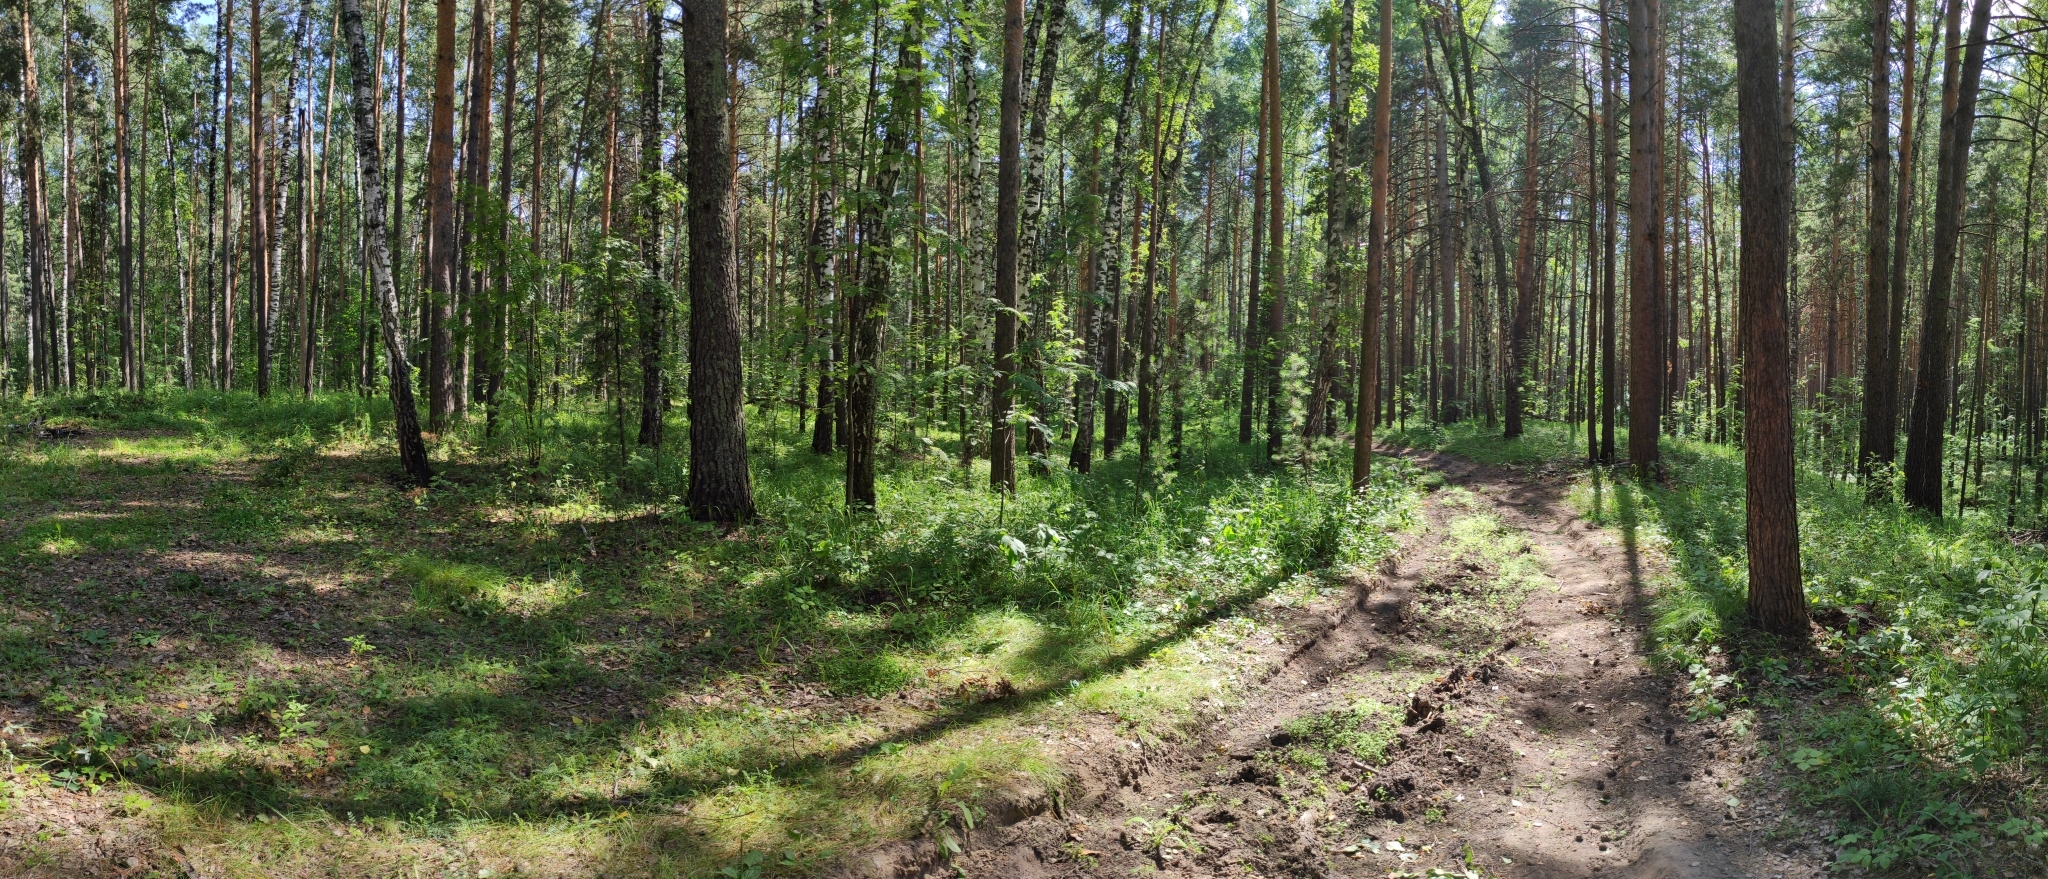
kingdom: Plantae
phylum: Tracheophyta
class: Pinopsida
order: Pinales
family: Pinaceae
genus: Pinus
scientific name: Pinus sylvestris
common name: Scots pine
